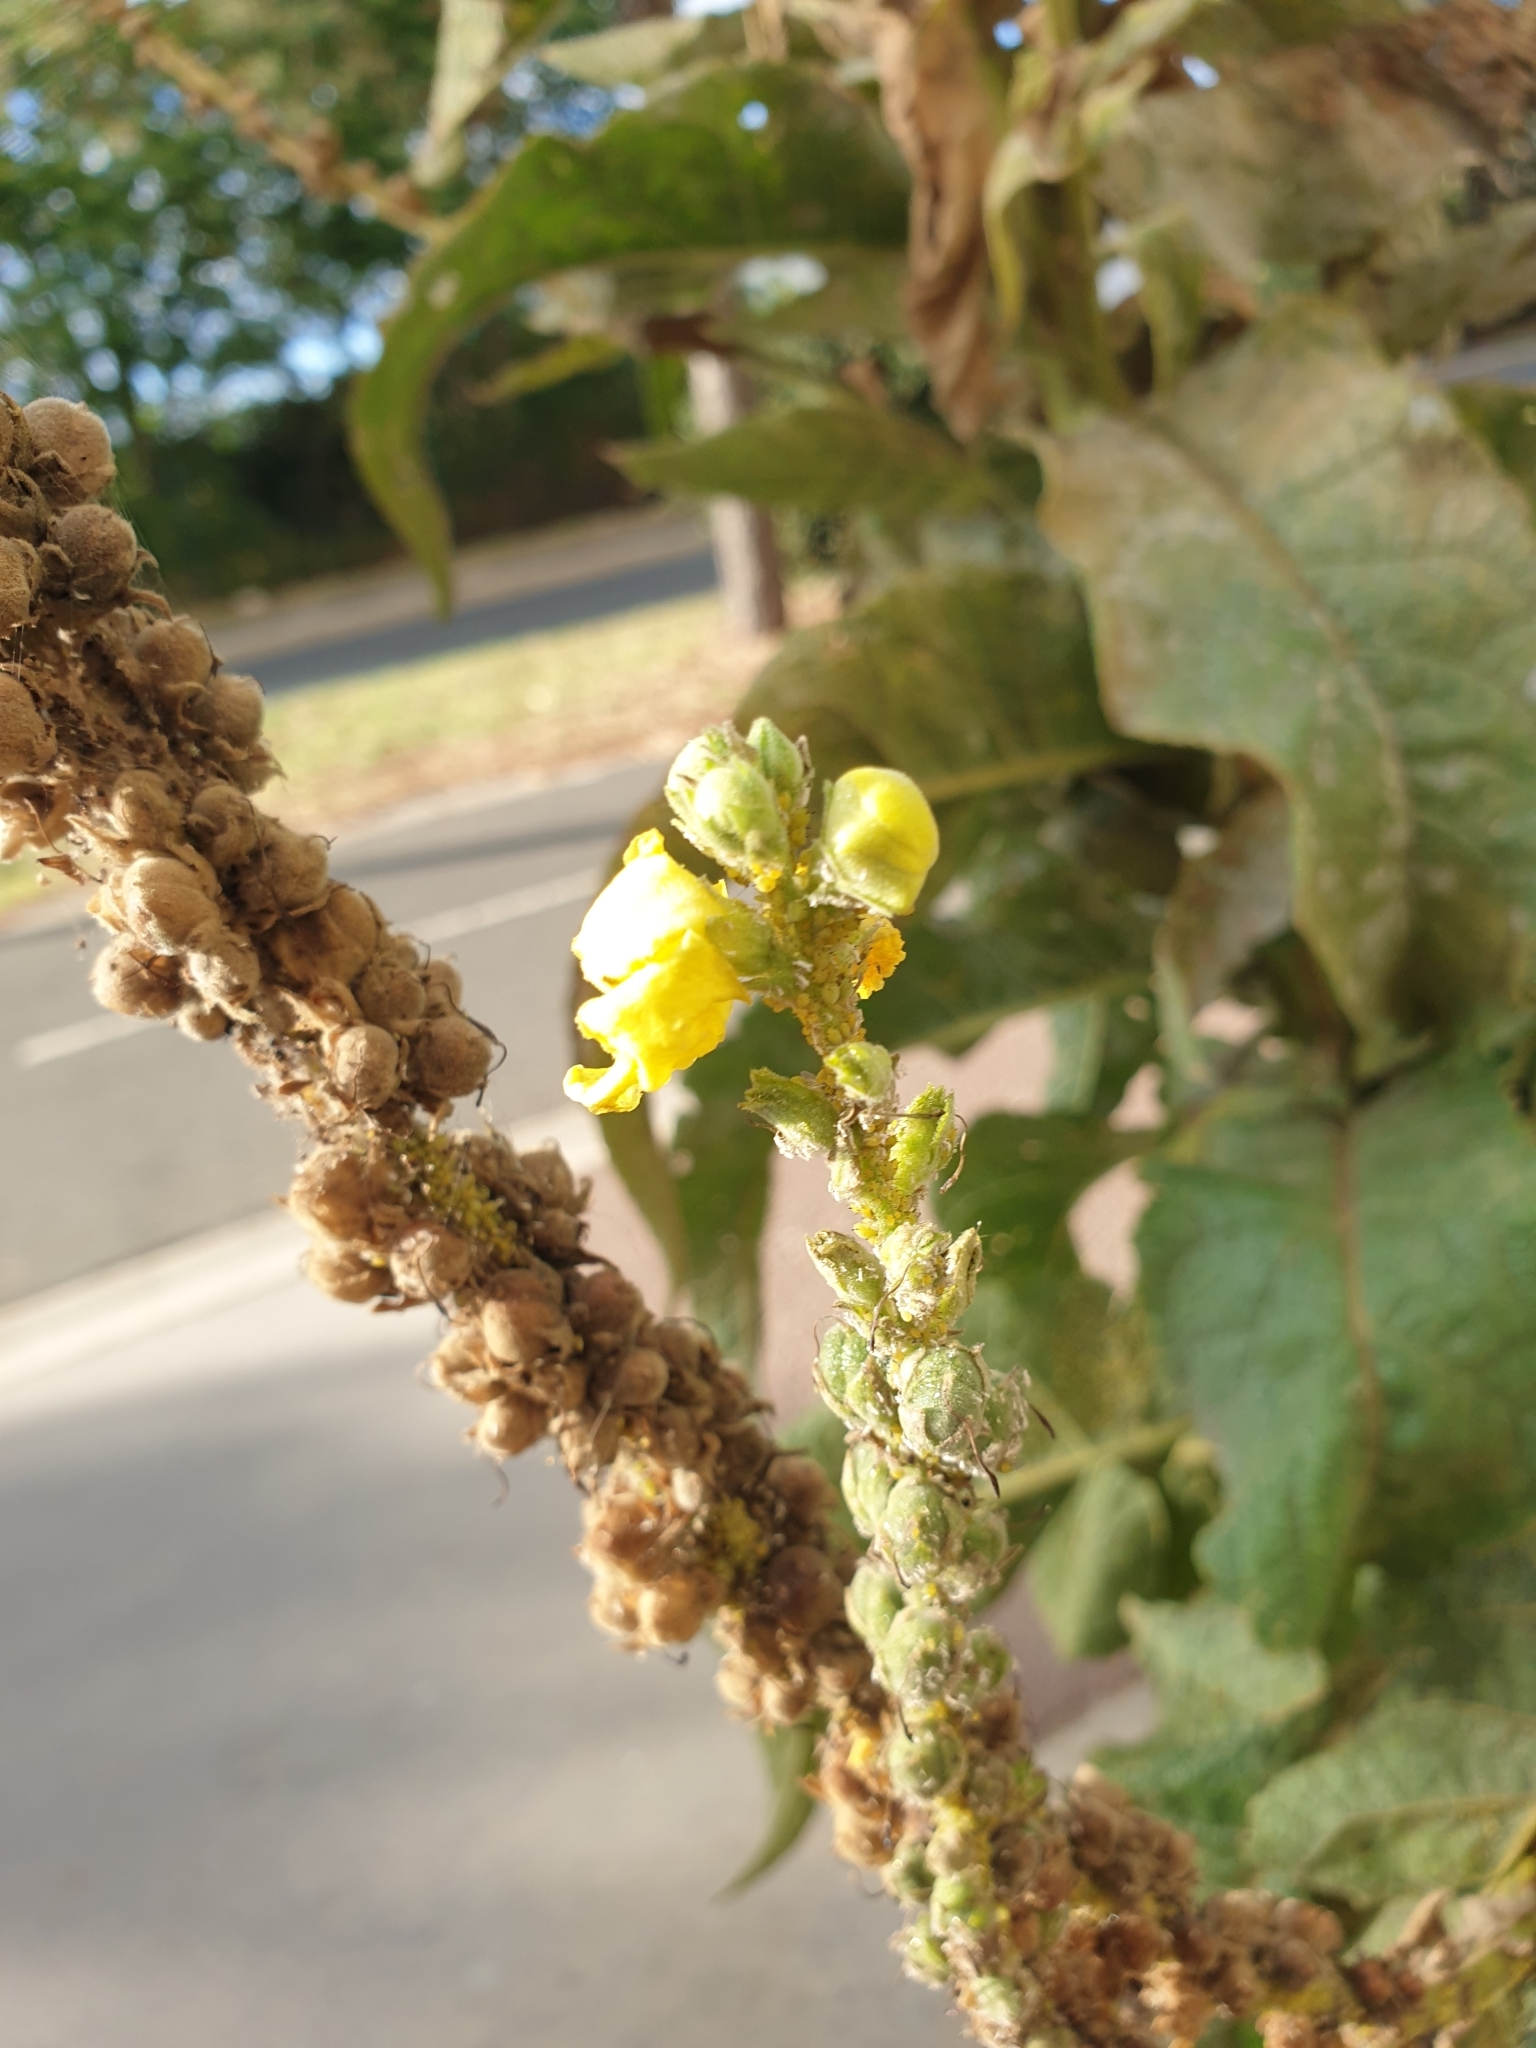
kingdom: Plantae
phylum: Tracheophyta
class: Magnoliopsida
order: Lamiales
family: Scrophulariaceae
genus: Verbascum
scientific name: Verbascum phlomoides
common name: Orange mullein
